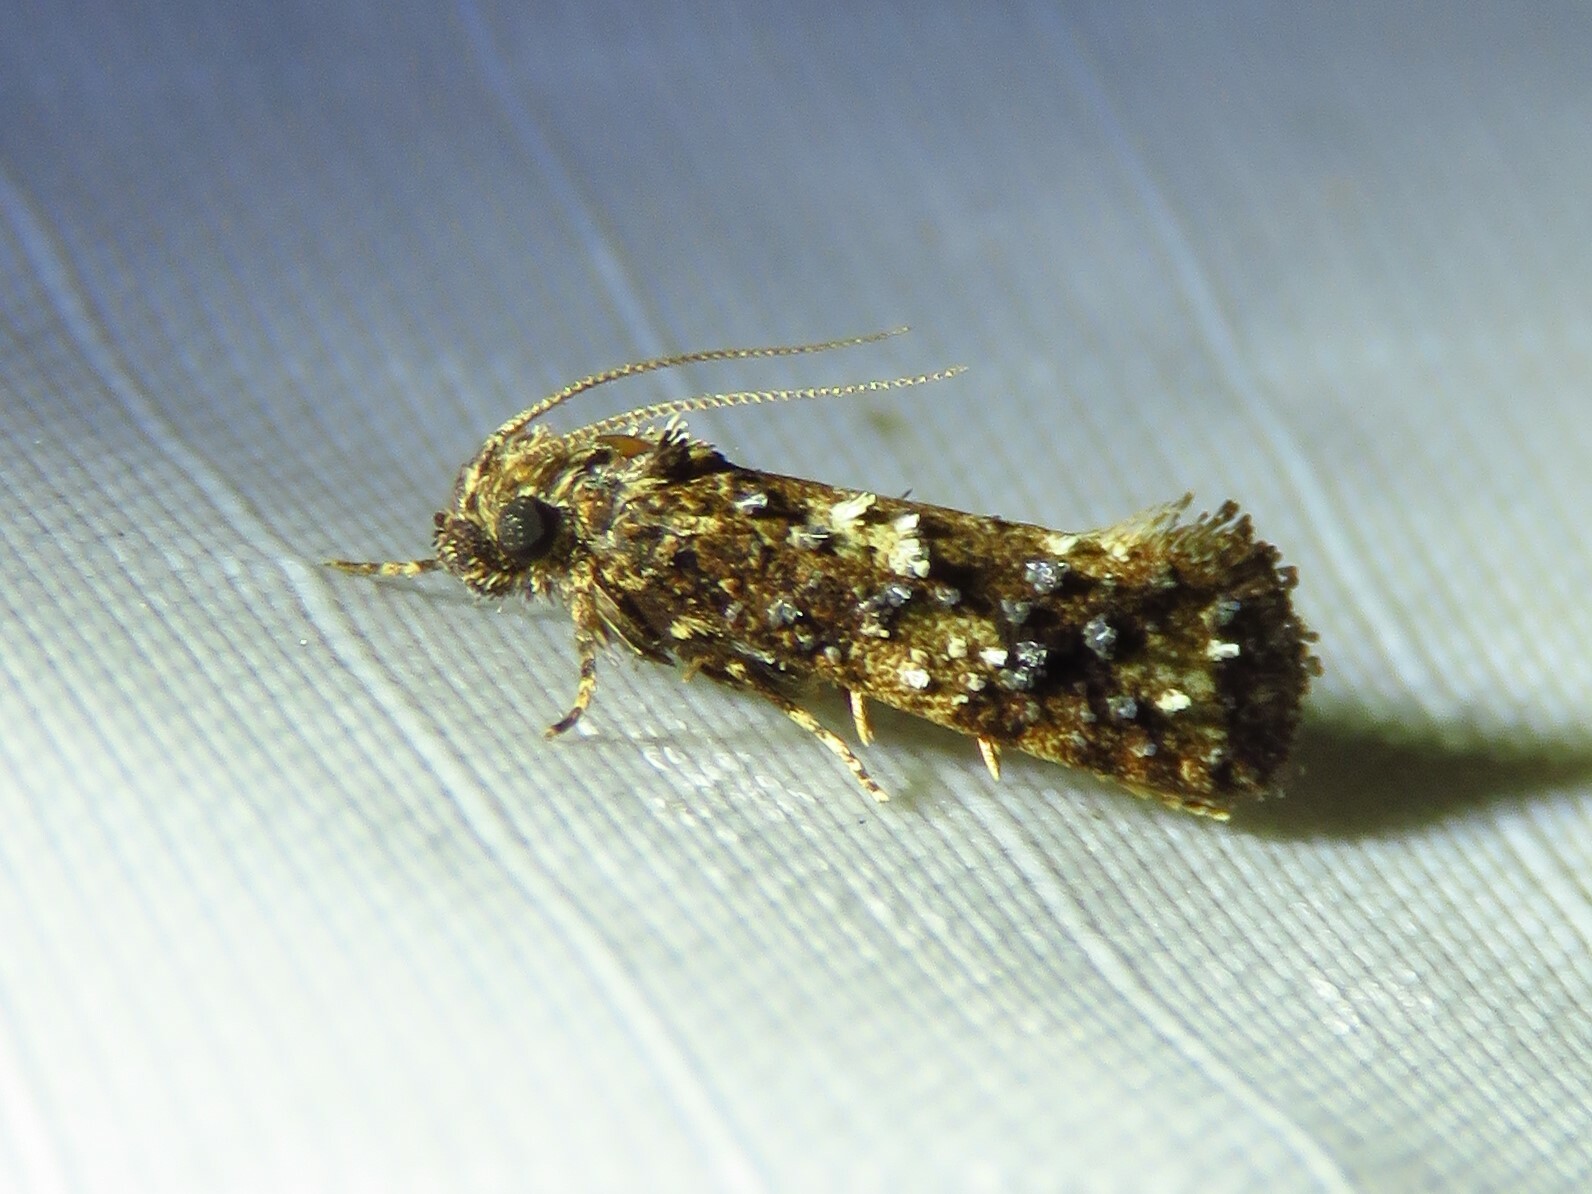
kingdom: Animalia
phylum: Arthropoda
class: Insecta
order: Lepidoptera
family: Tineidae
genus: Acrolophus
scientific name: Acrolophus cressoni
